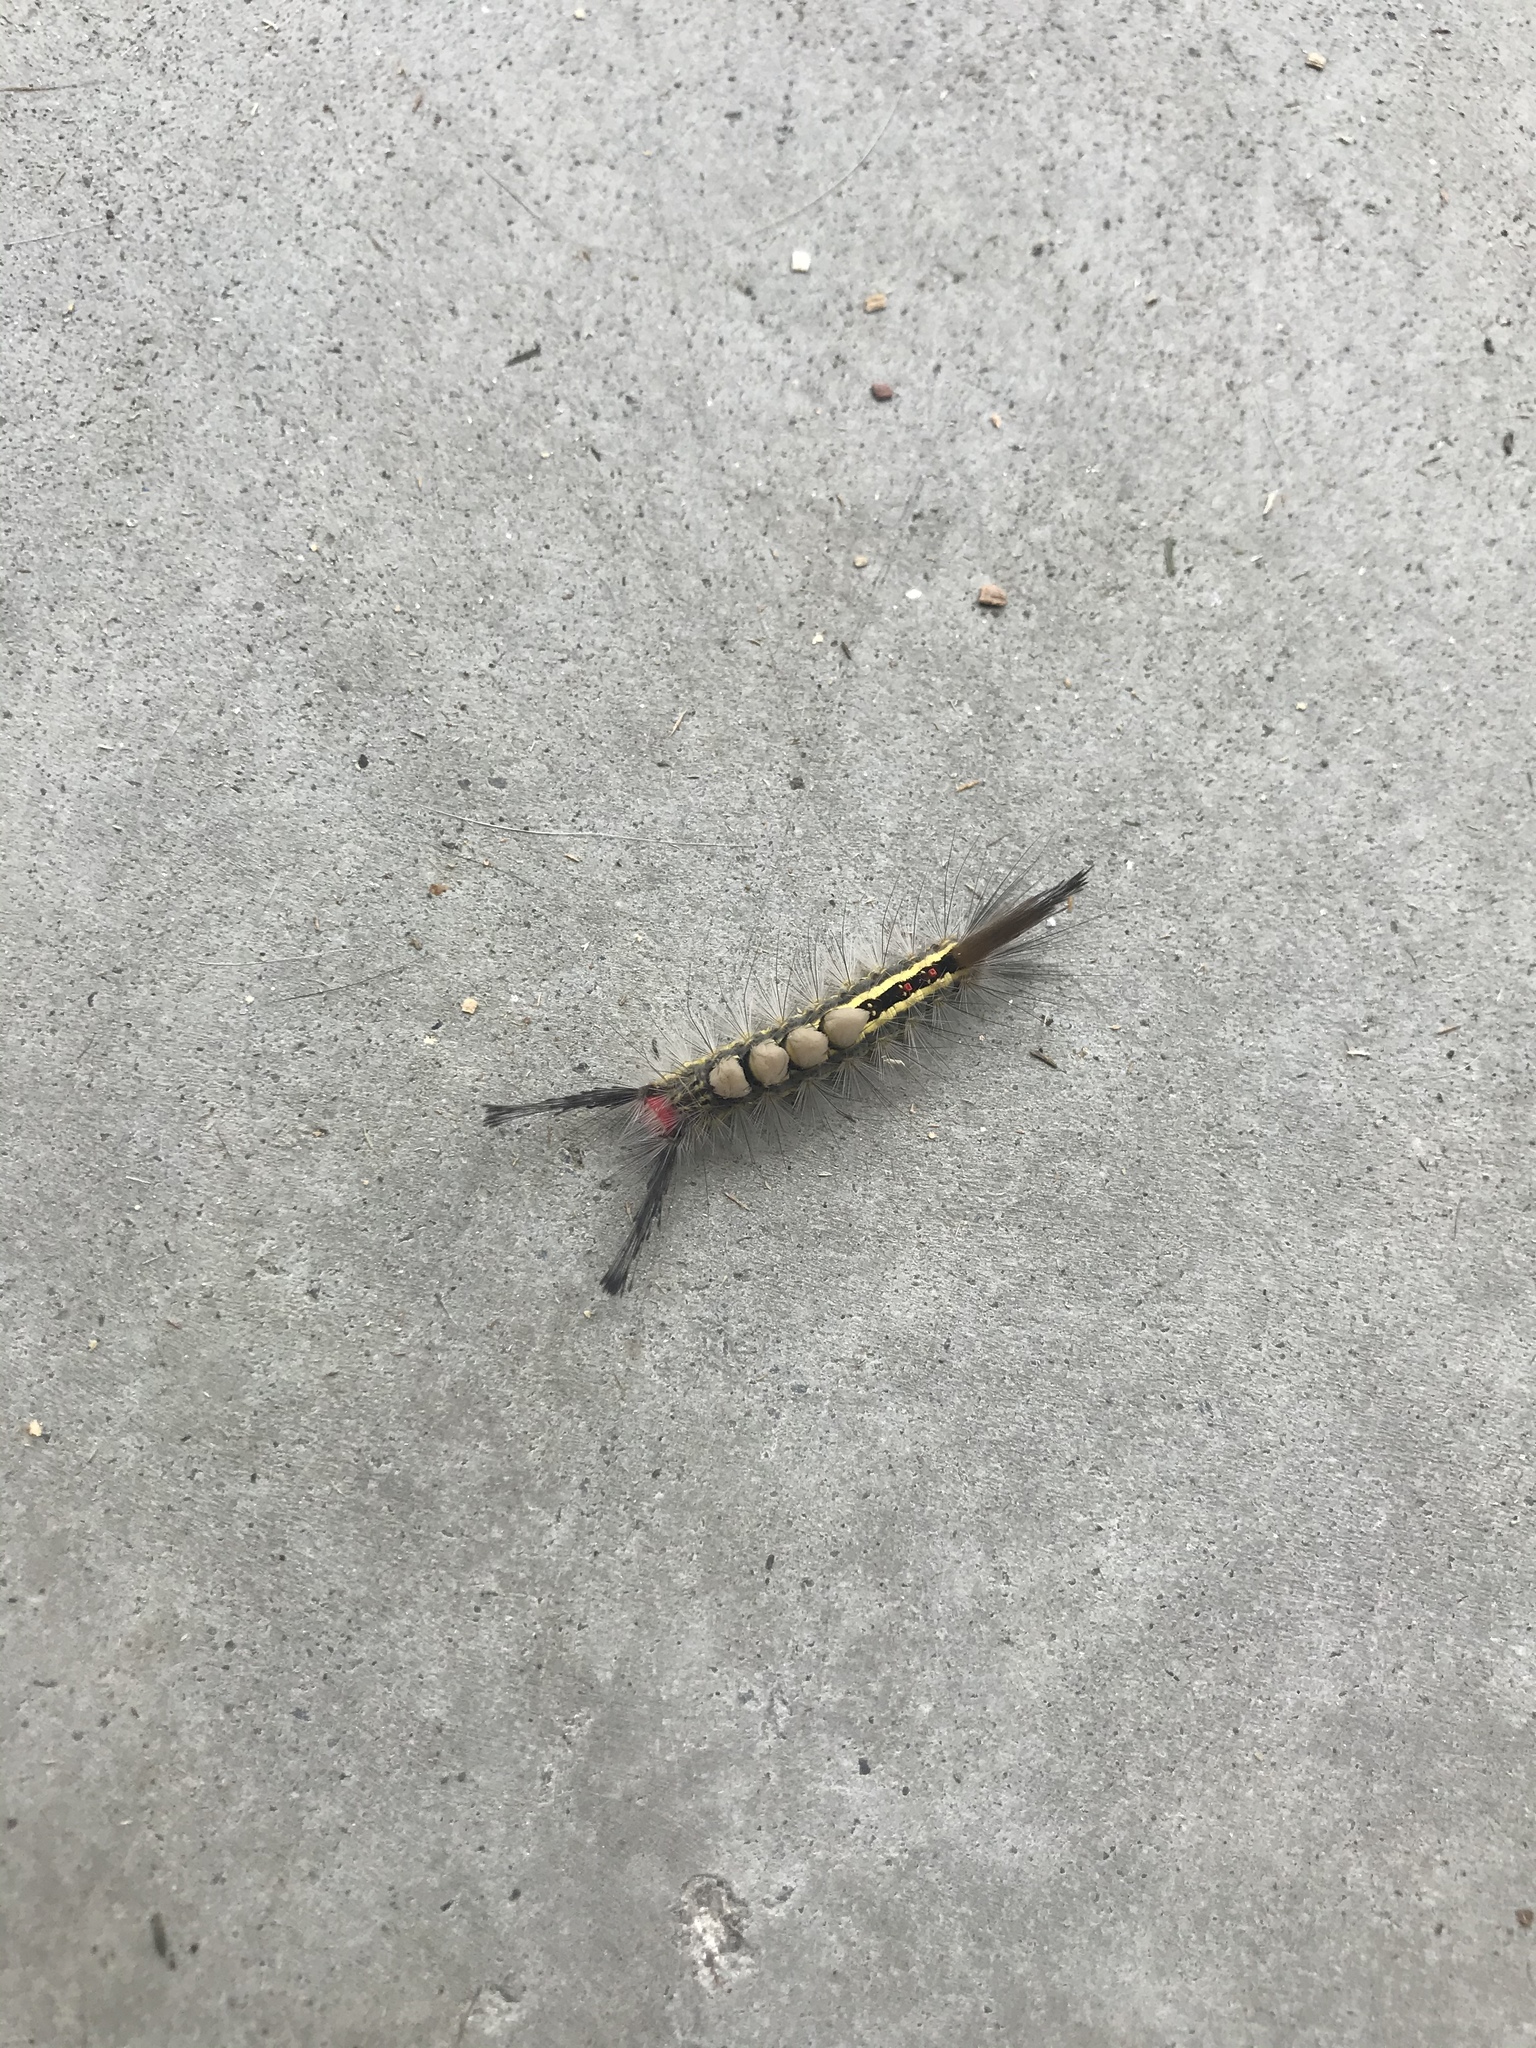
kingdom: Animalia
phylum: Arthropoda
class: Insecta
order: Lepidoptera
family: Erebidae
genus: Orgyia
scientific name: Orgyia leucostigma
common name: White-marked tussock moth
